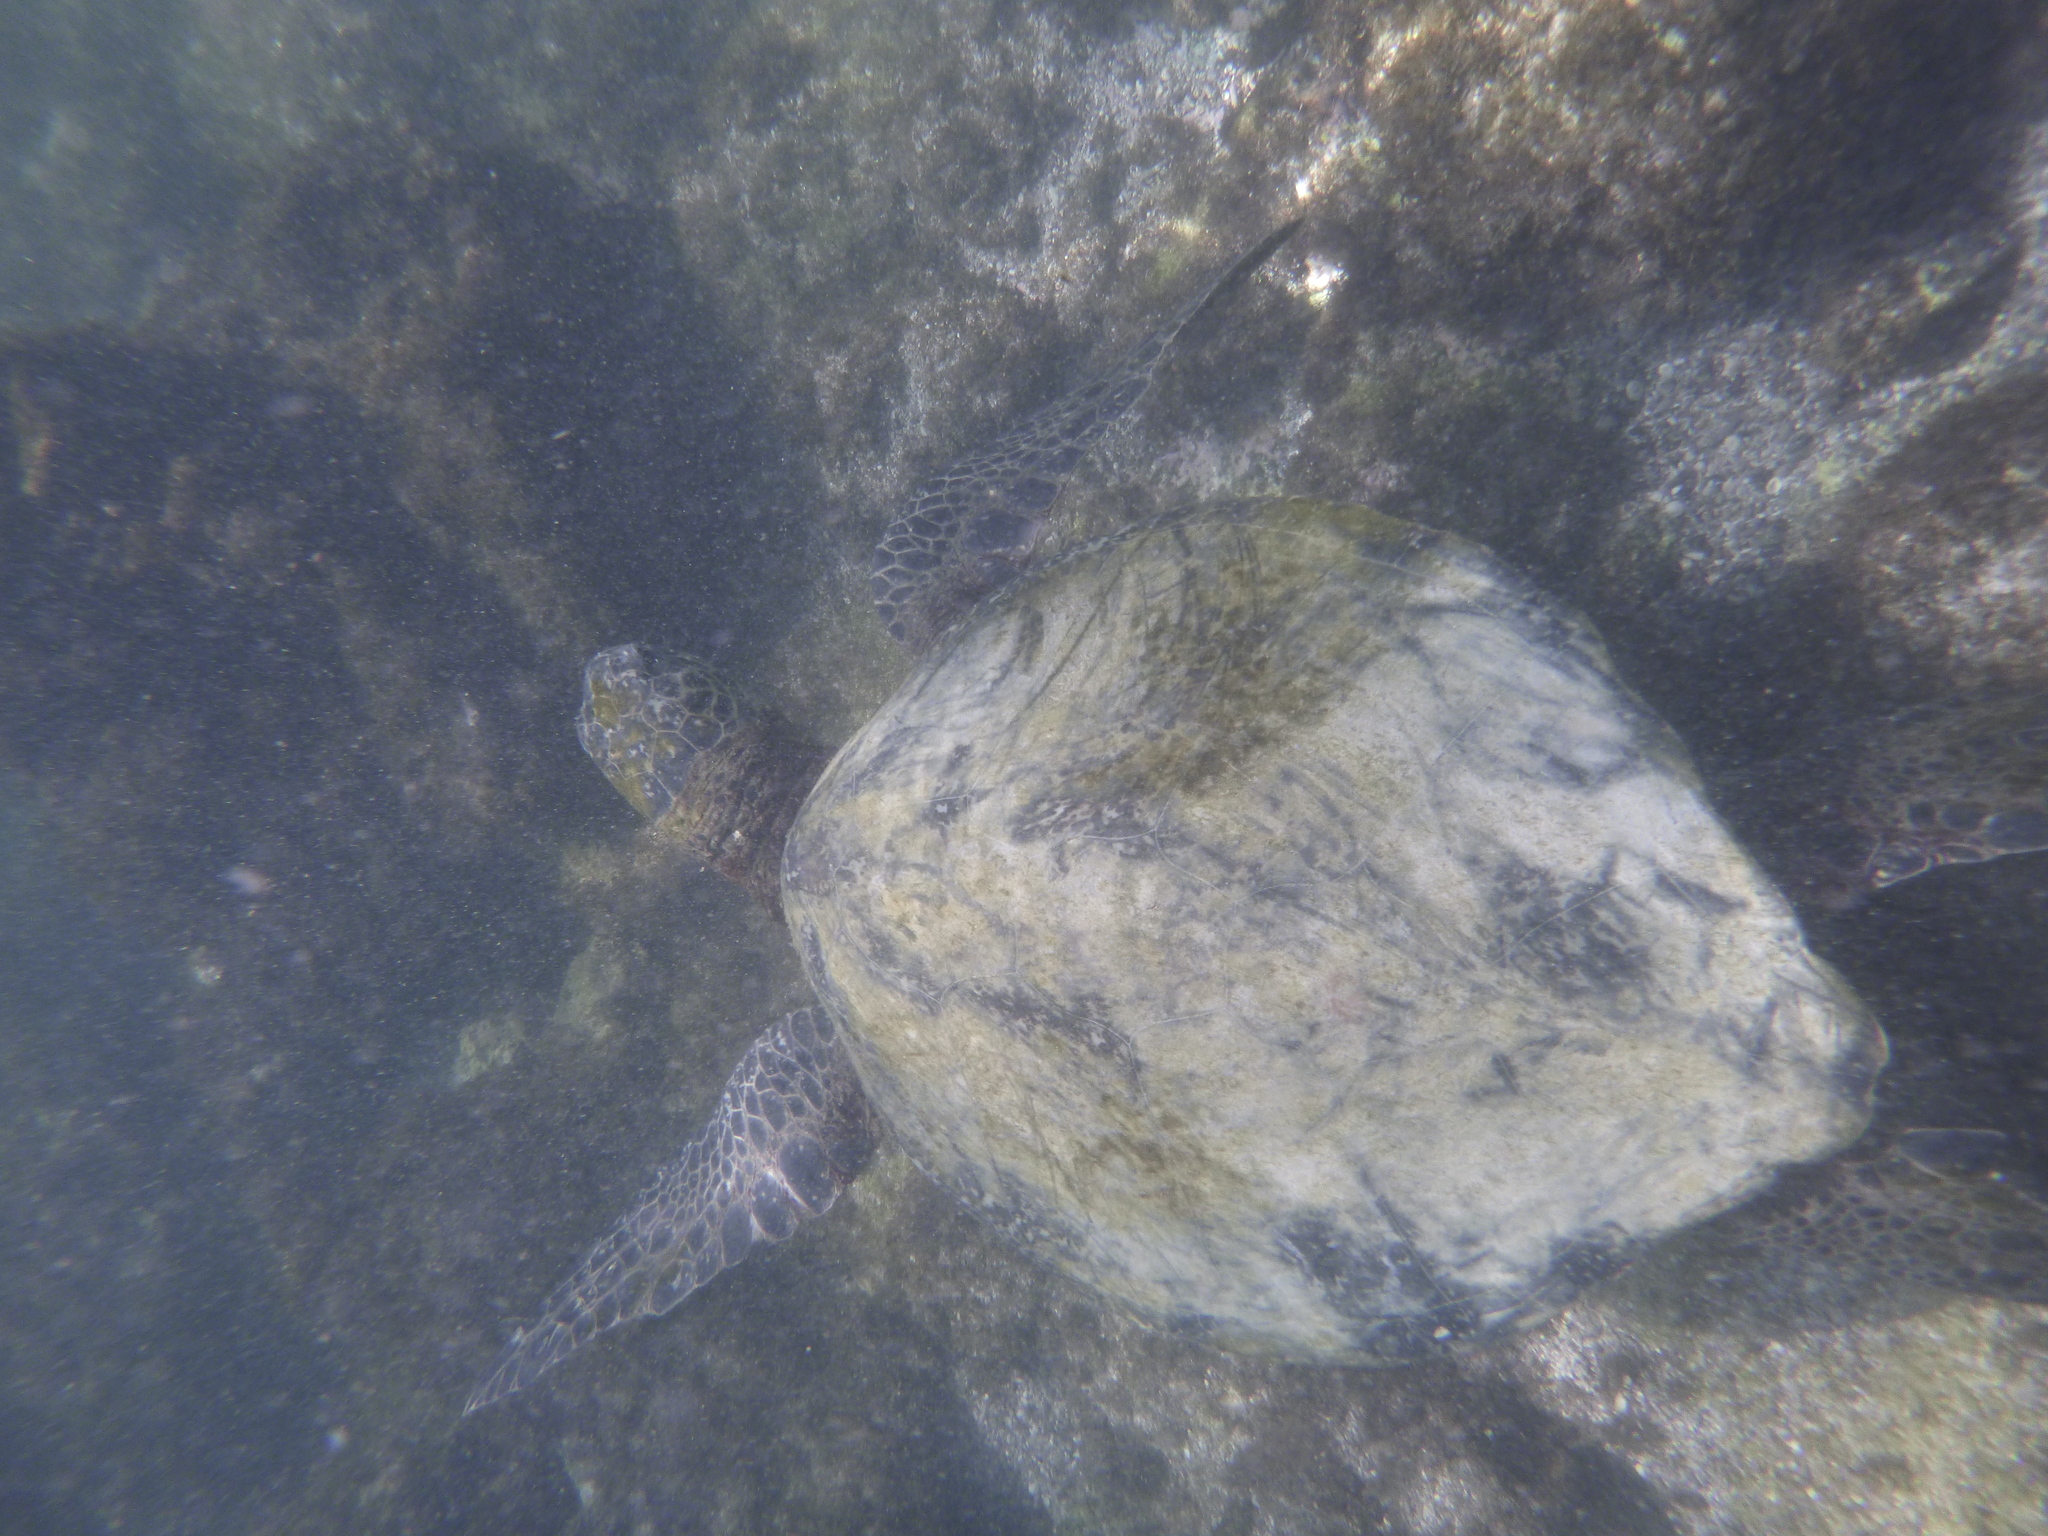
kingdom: Animalia
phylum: Chordata
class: Testudines
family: Cheloniidae
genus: Chelonia
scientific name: Chelonia mydas
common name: Green turtle
